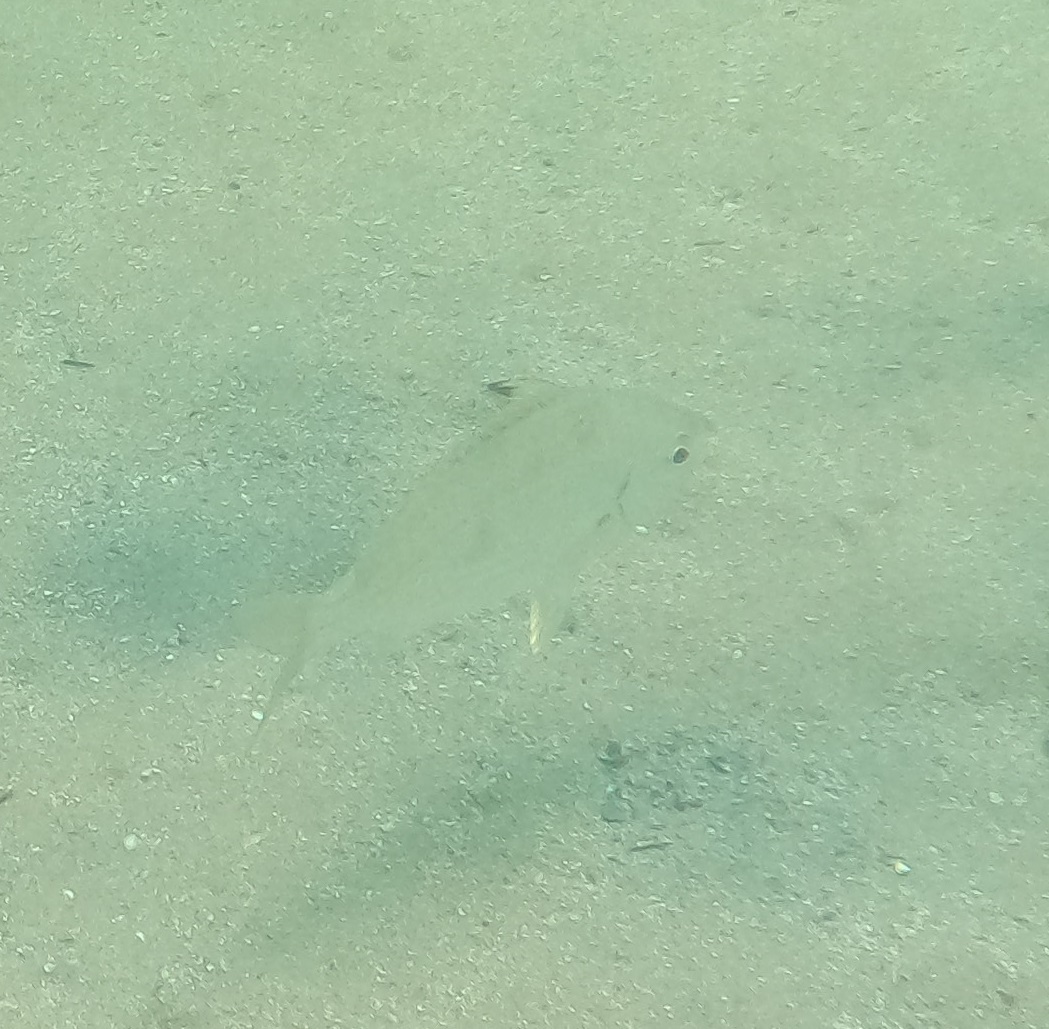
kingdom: Animalia
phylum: Chordata
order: Perciformes
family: Gerreidae
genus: Gerres
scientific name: Gerres subfasciatus
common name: Common silver belly
